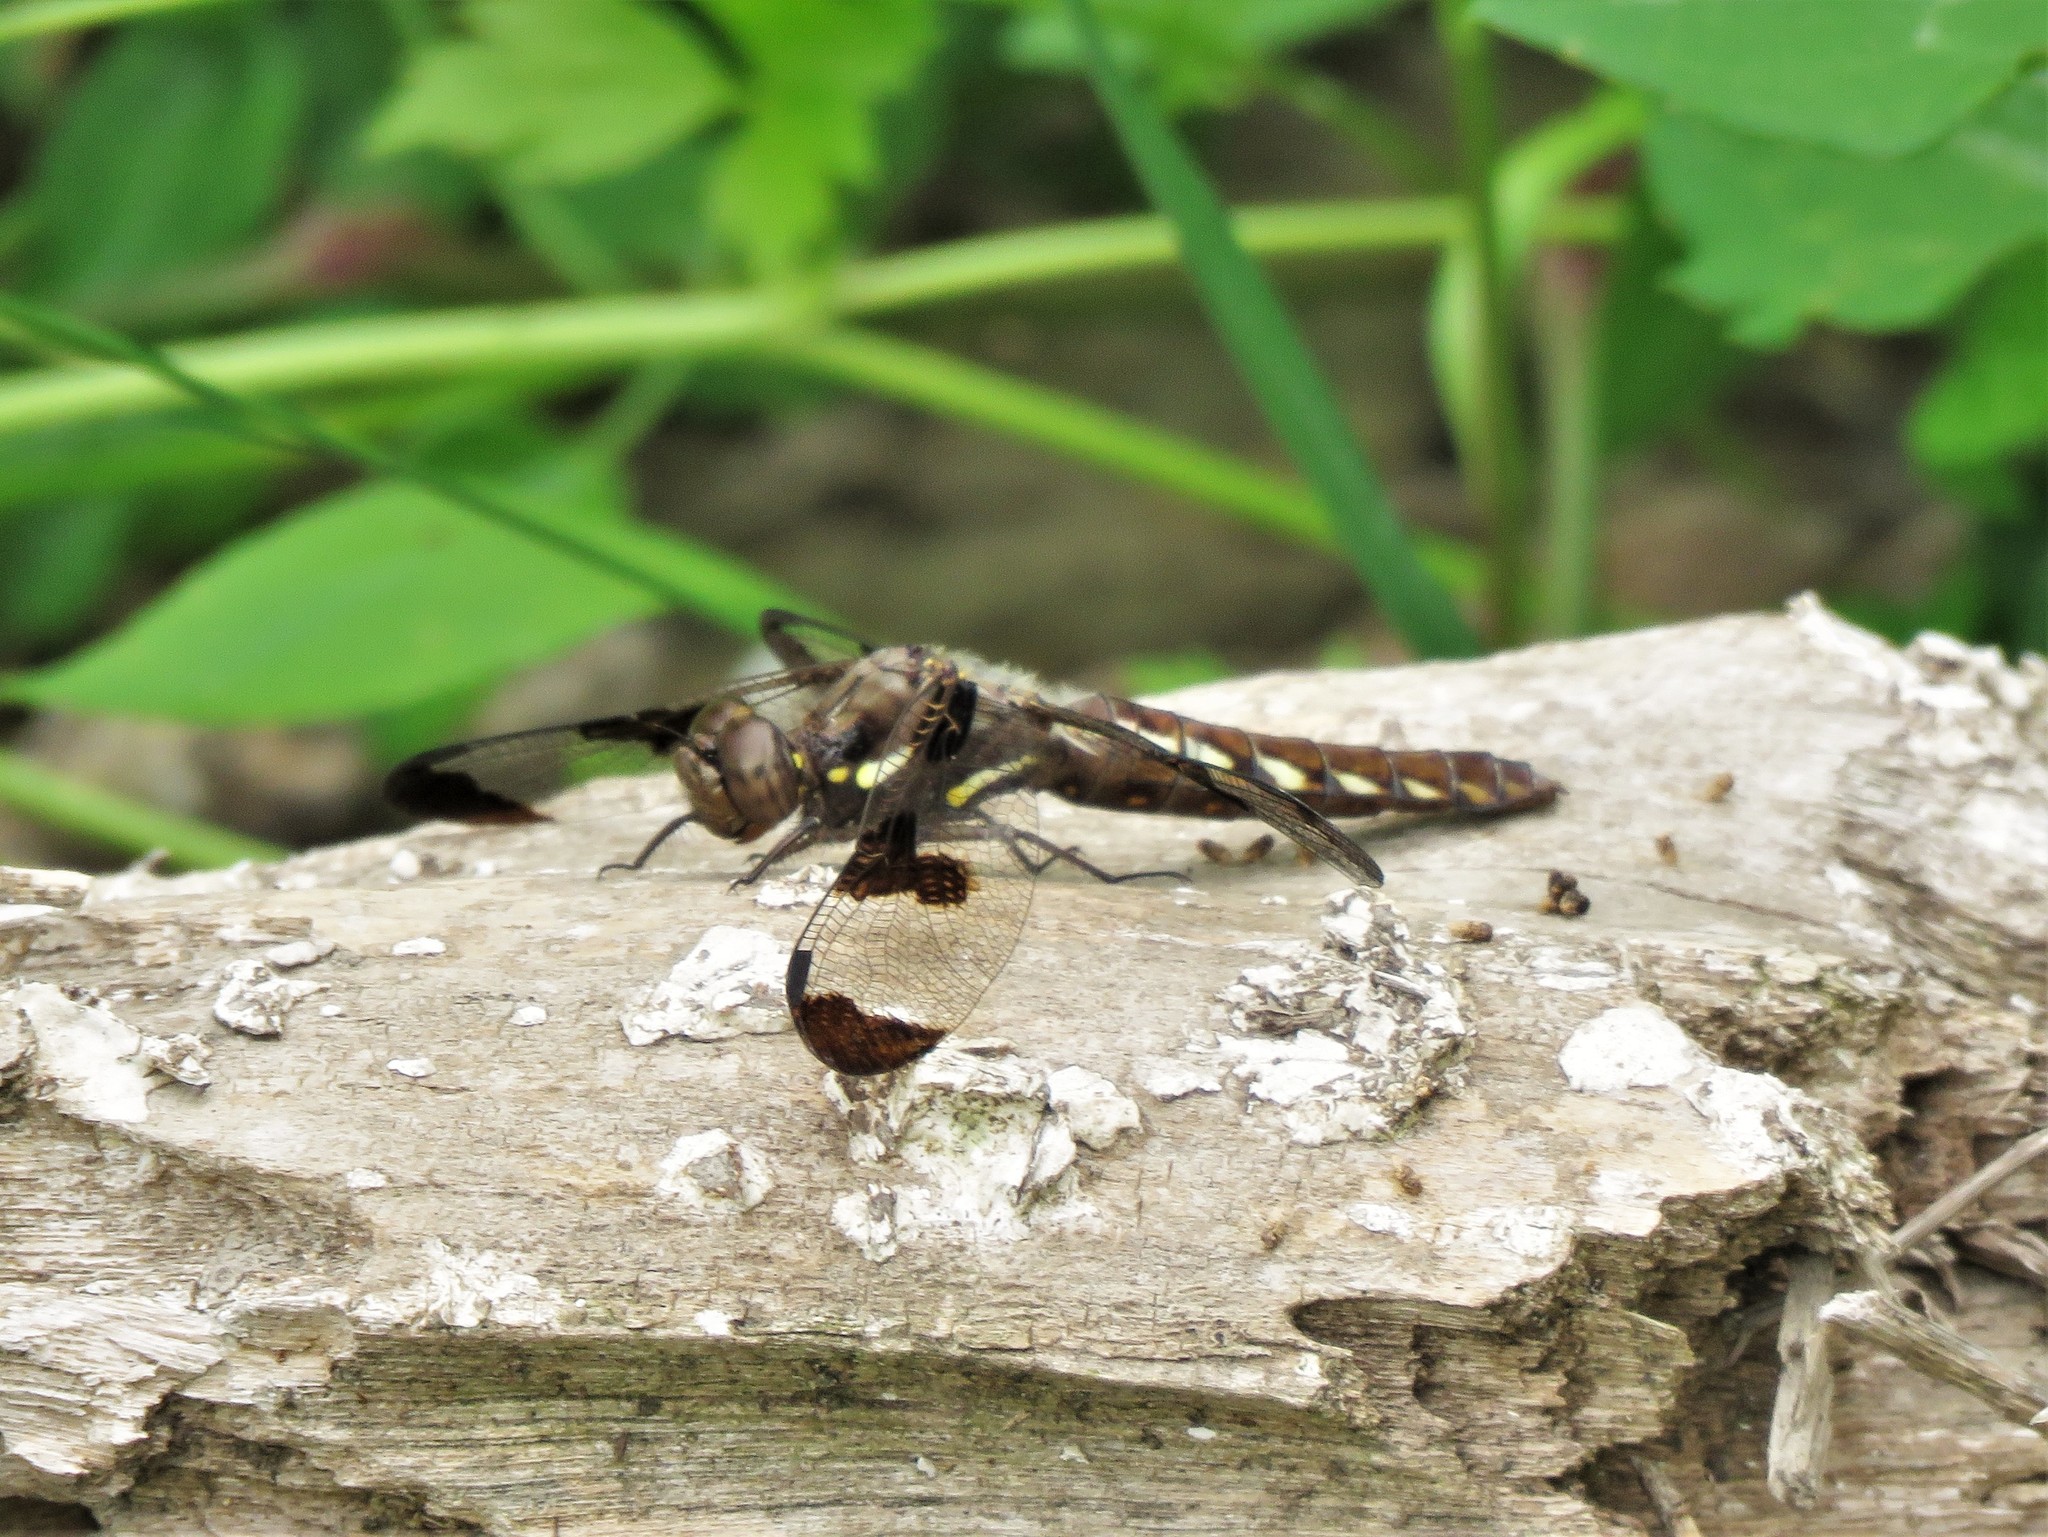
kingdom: Animalia
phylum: Arthropoda
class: Insecta
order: Odonata
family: Libellulidae
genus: Plathemis
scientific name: Plathemis lydia
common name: Common whitetail
